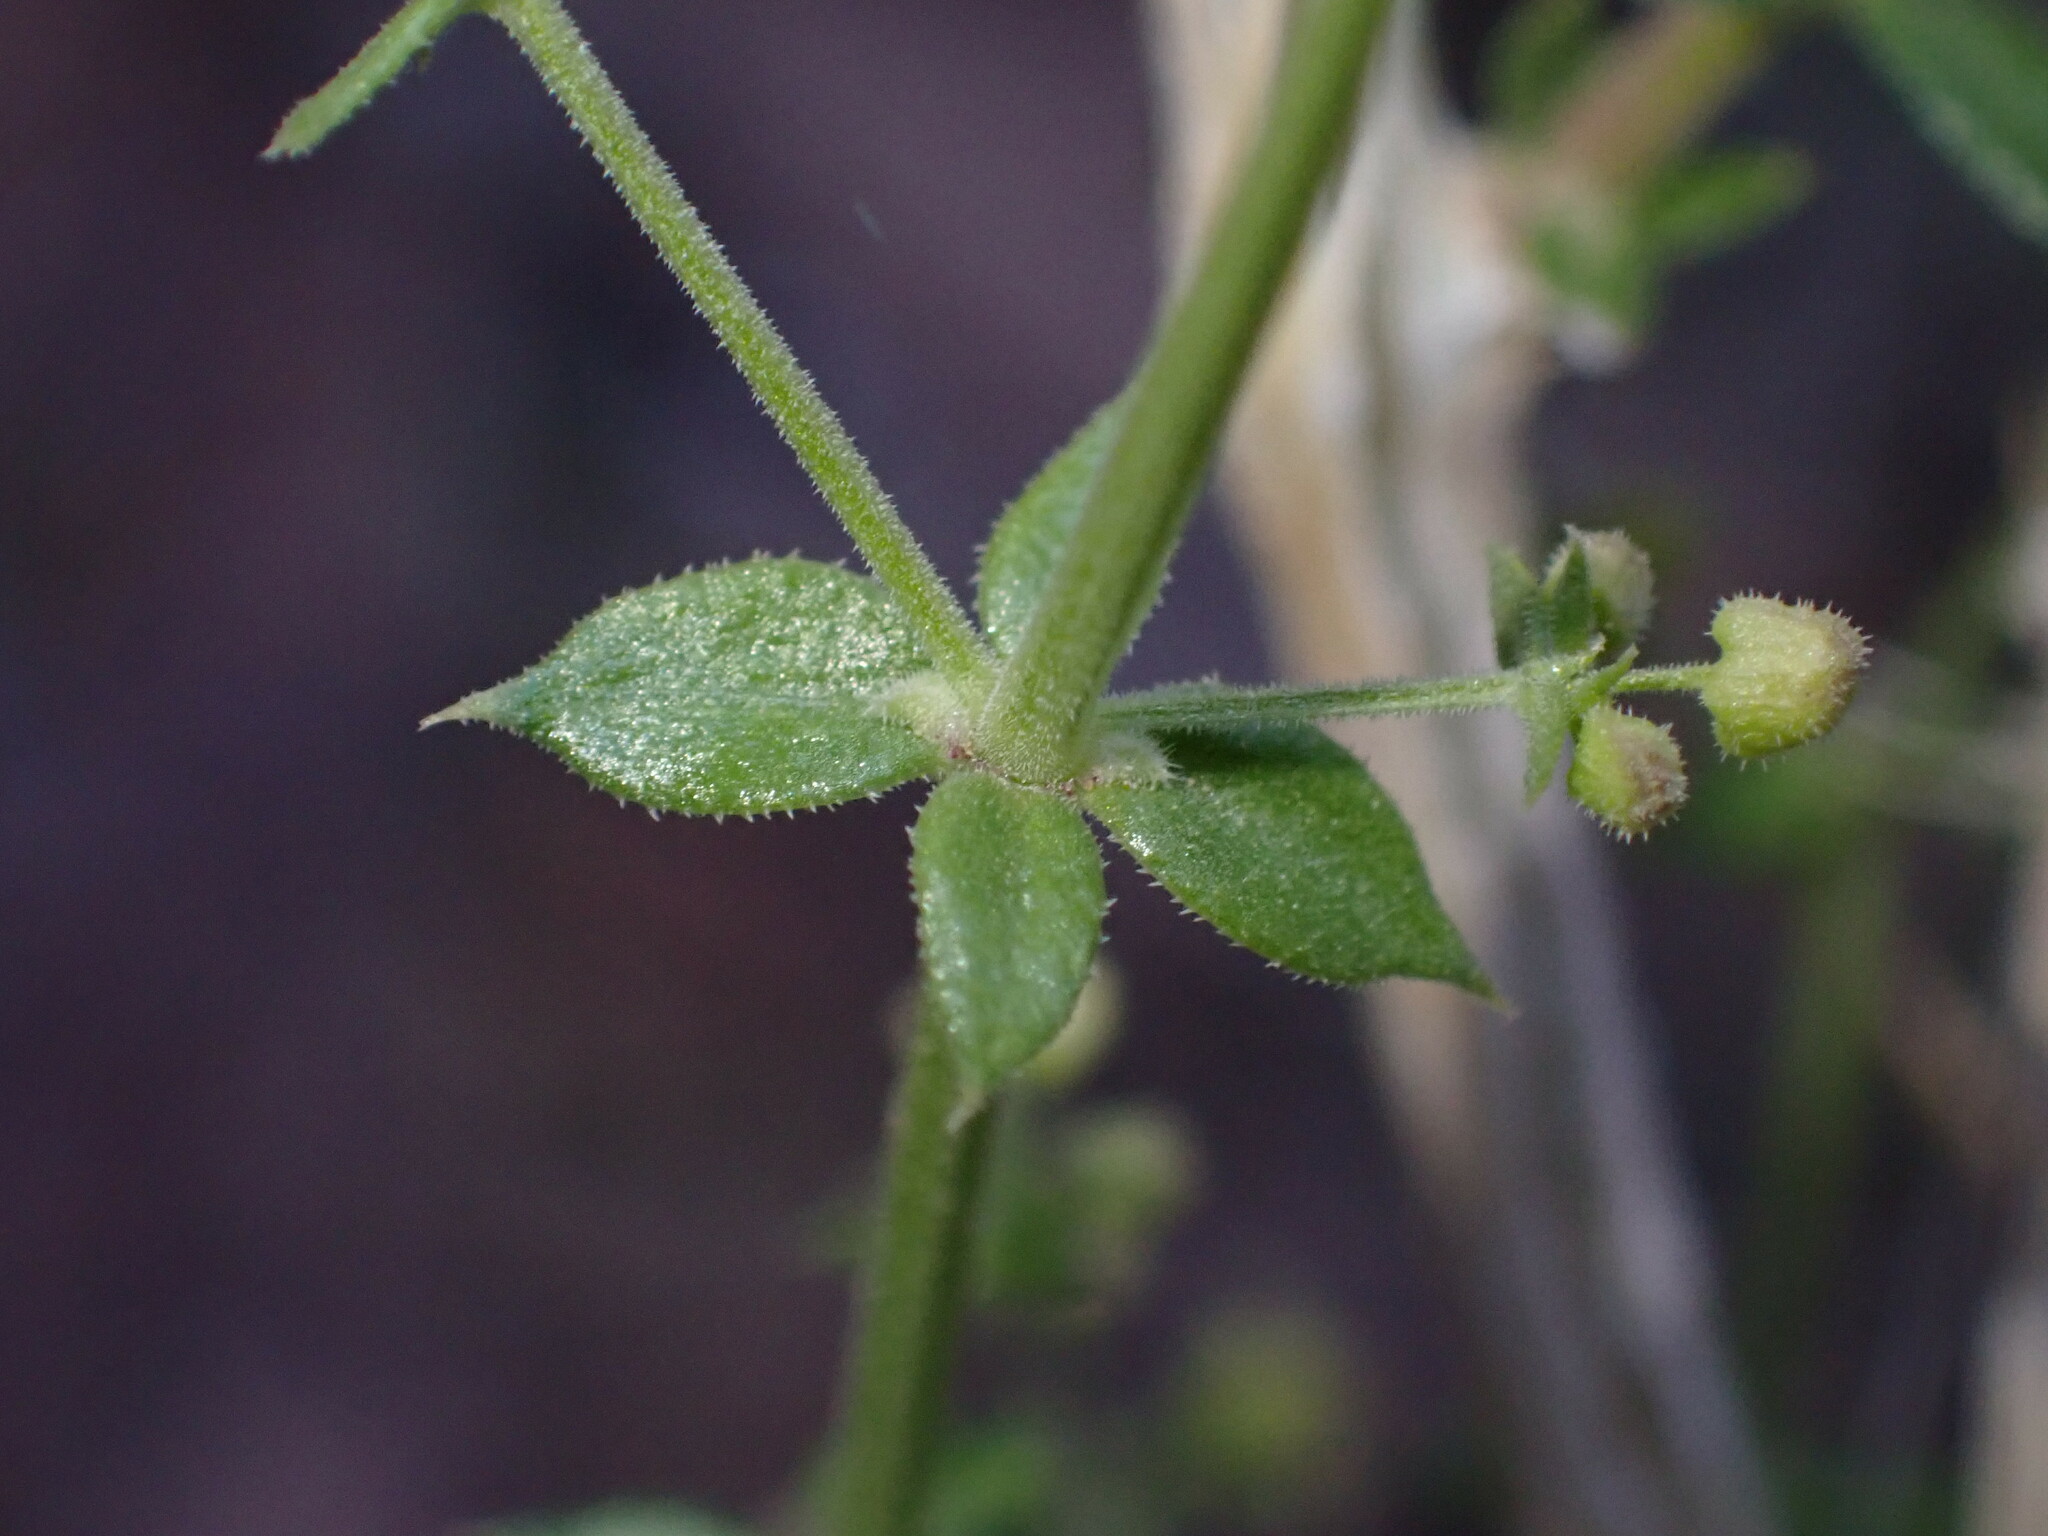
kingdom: Plantae
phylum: Tracheophyta
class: Magnoliopsida
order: Gentianales
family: Rubiaceae
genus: Galium
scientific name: Galium stellatum
